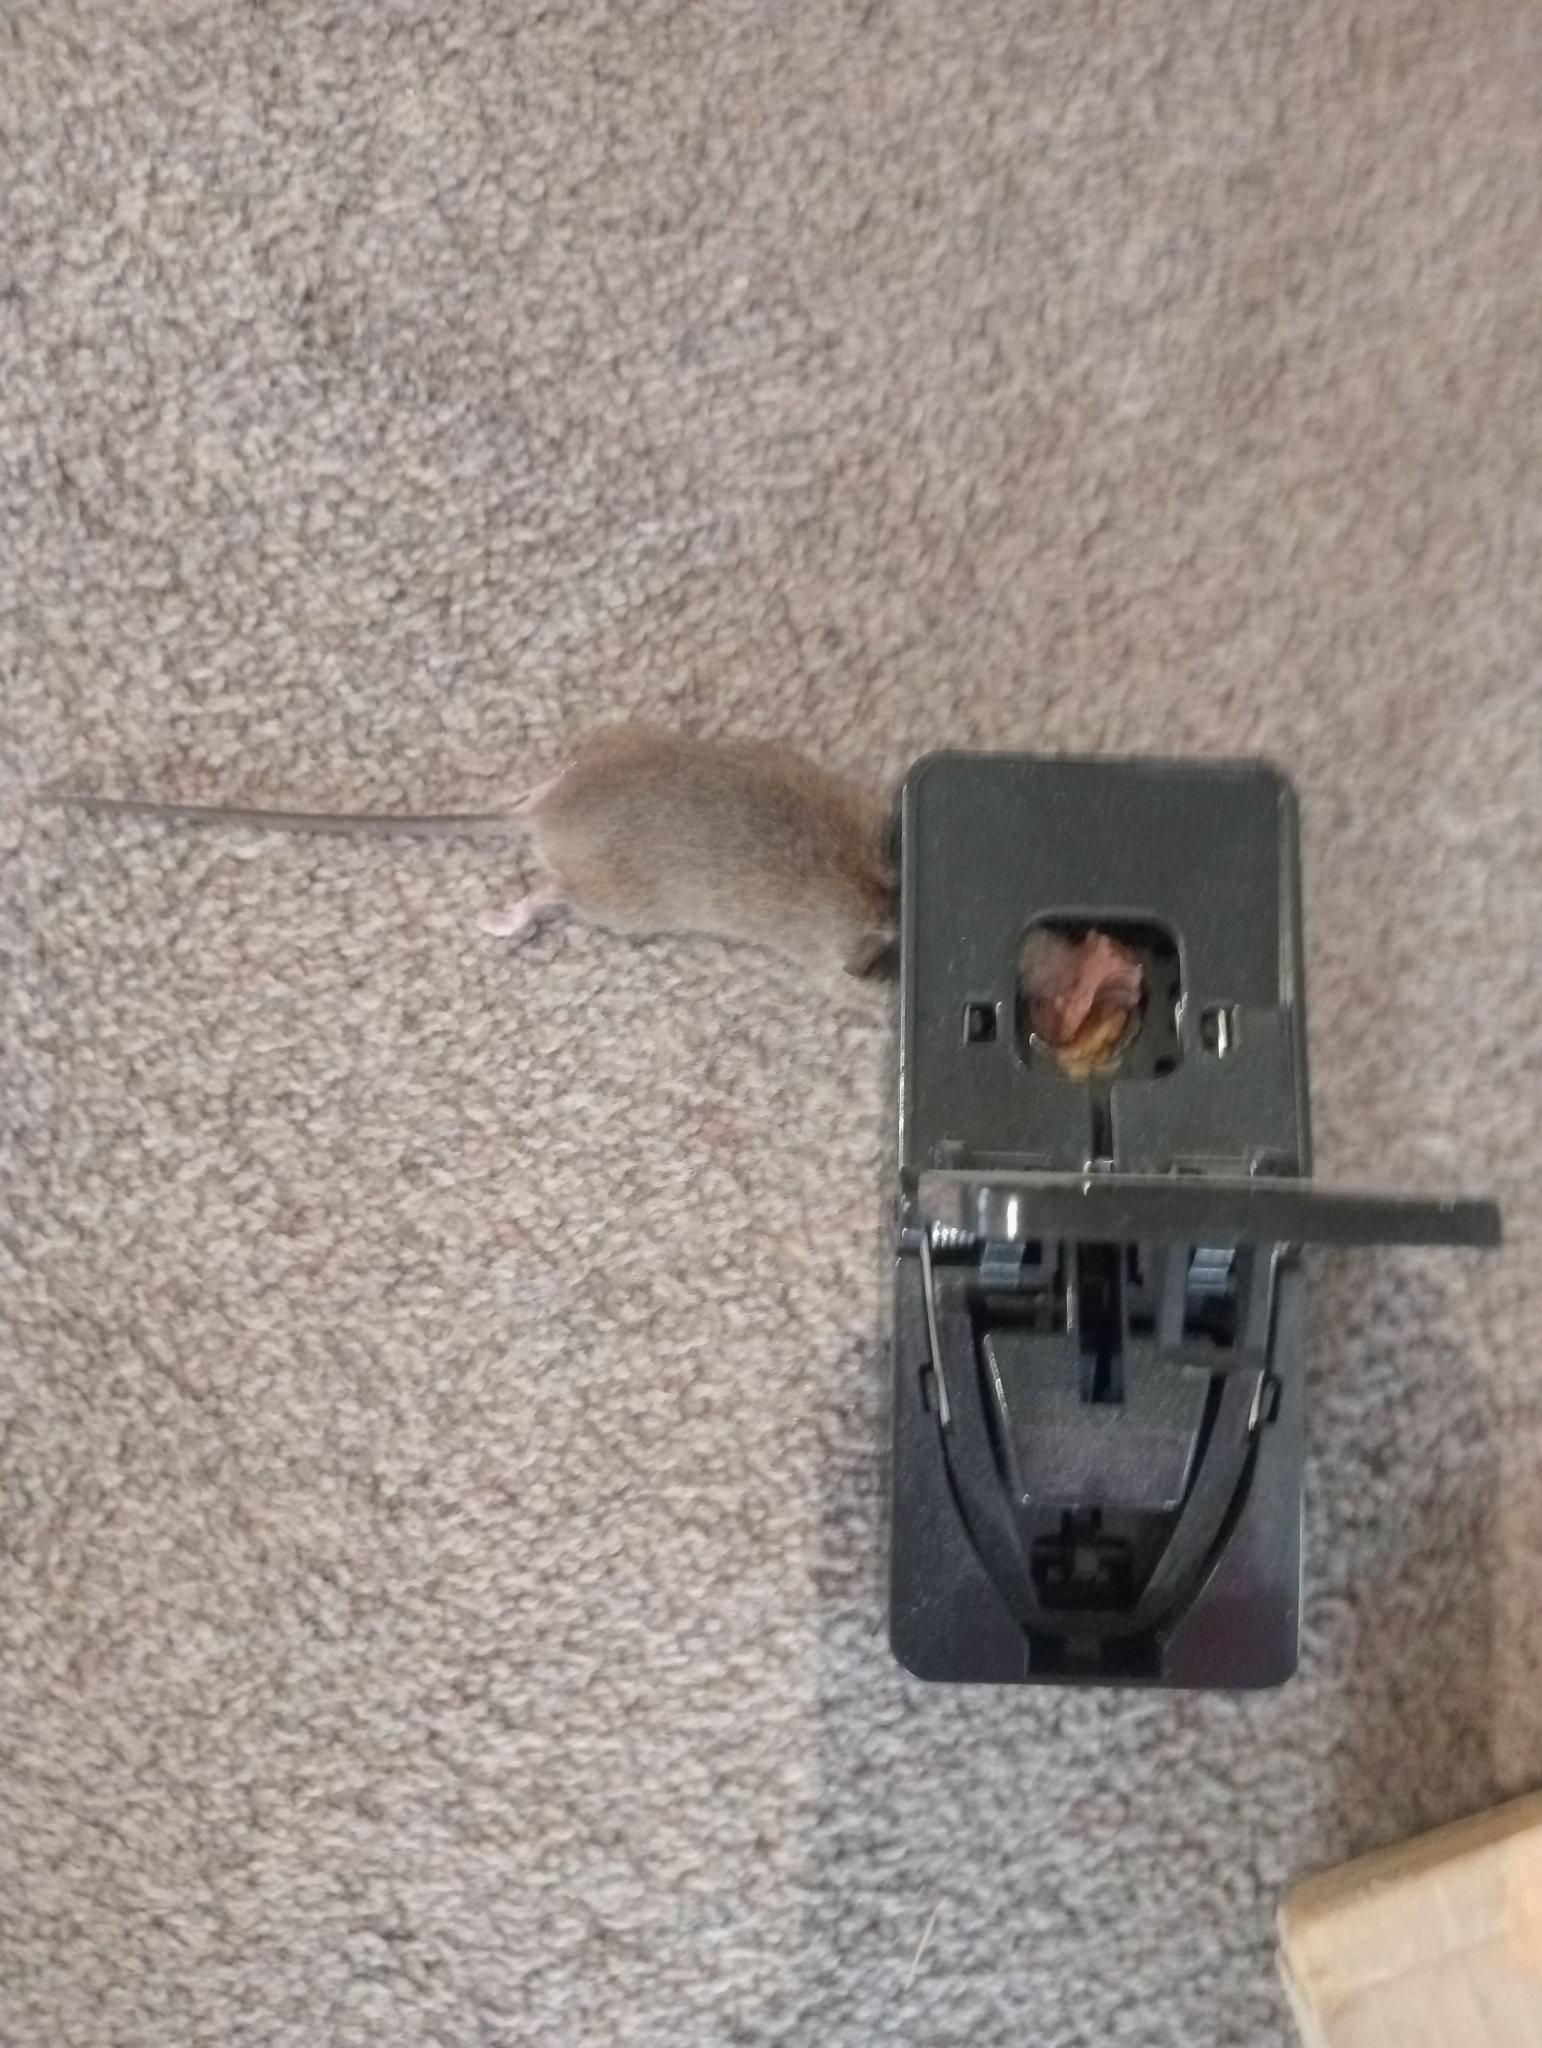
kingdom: Animalia
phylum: Chordata
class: Mammalia
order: Rodentia
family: Muridae
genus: Mus
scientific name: Mus musculus
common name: House mouse
